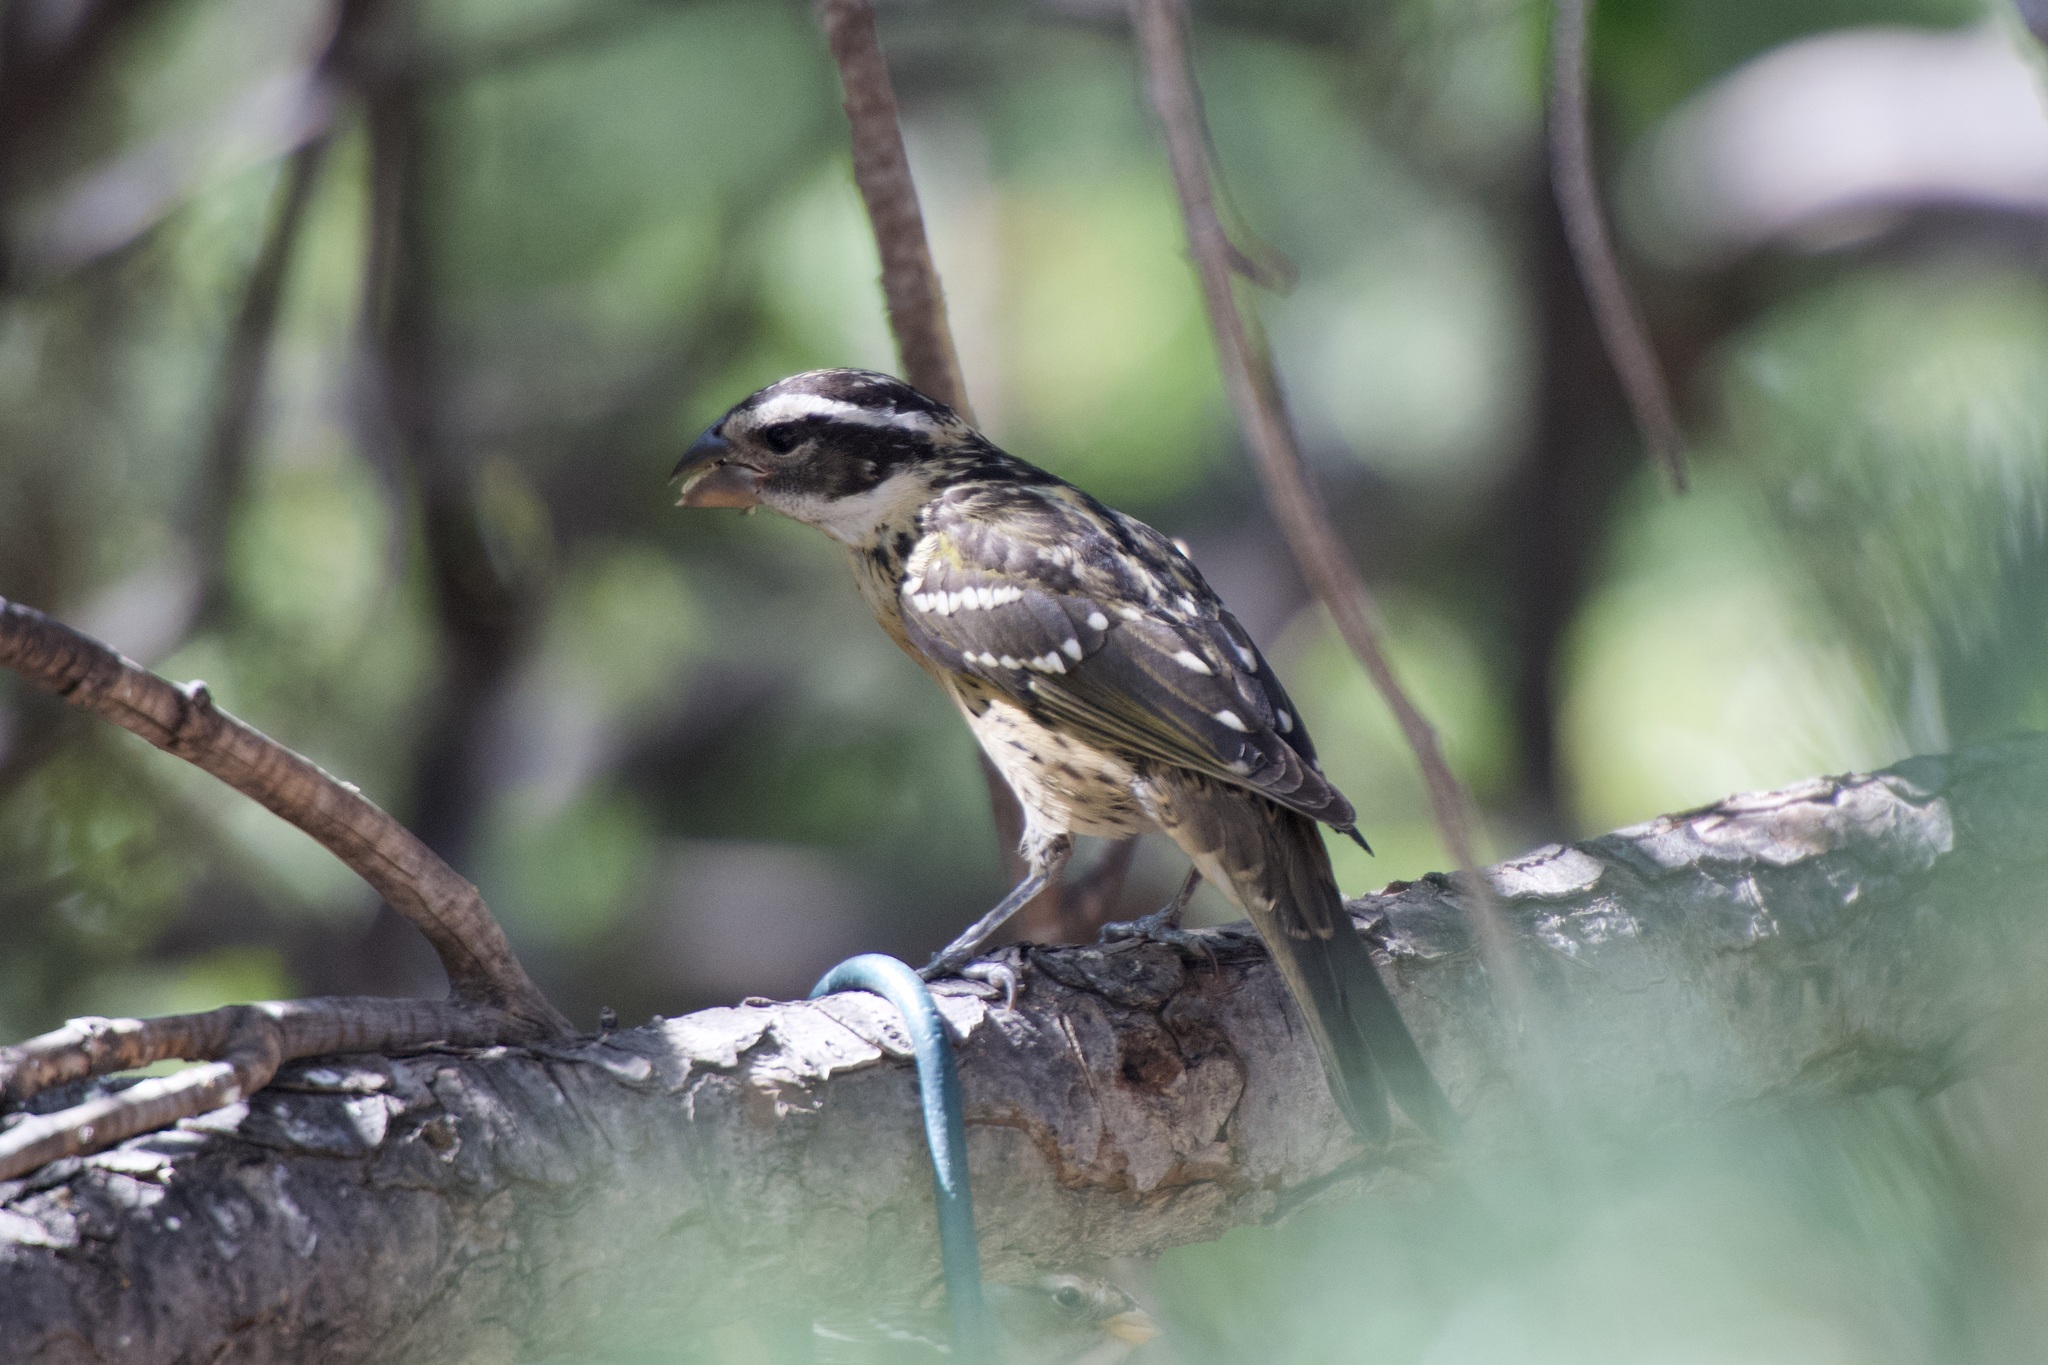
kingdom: Animalia
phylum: Chordata
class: Aves
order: Passeriformes
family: Cardinalidae
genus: Pheucticus
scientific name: Pheucticus melanocephalus
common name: Black-headed grosbeak
